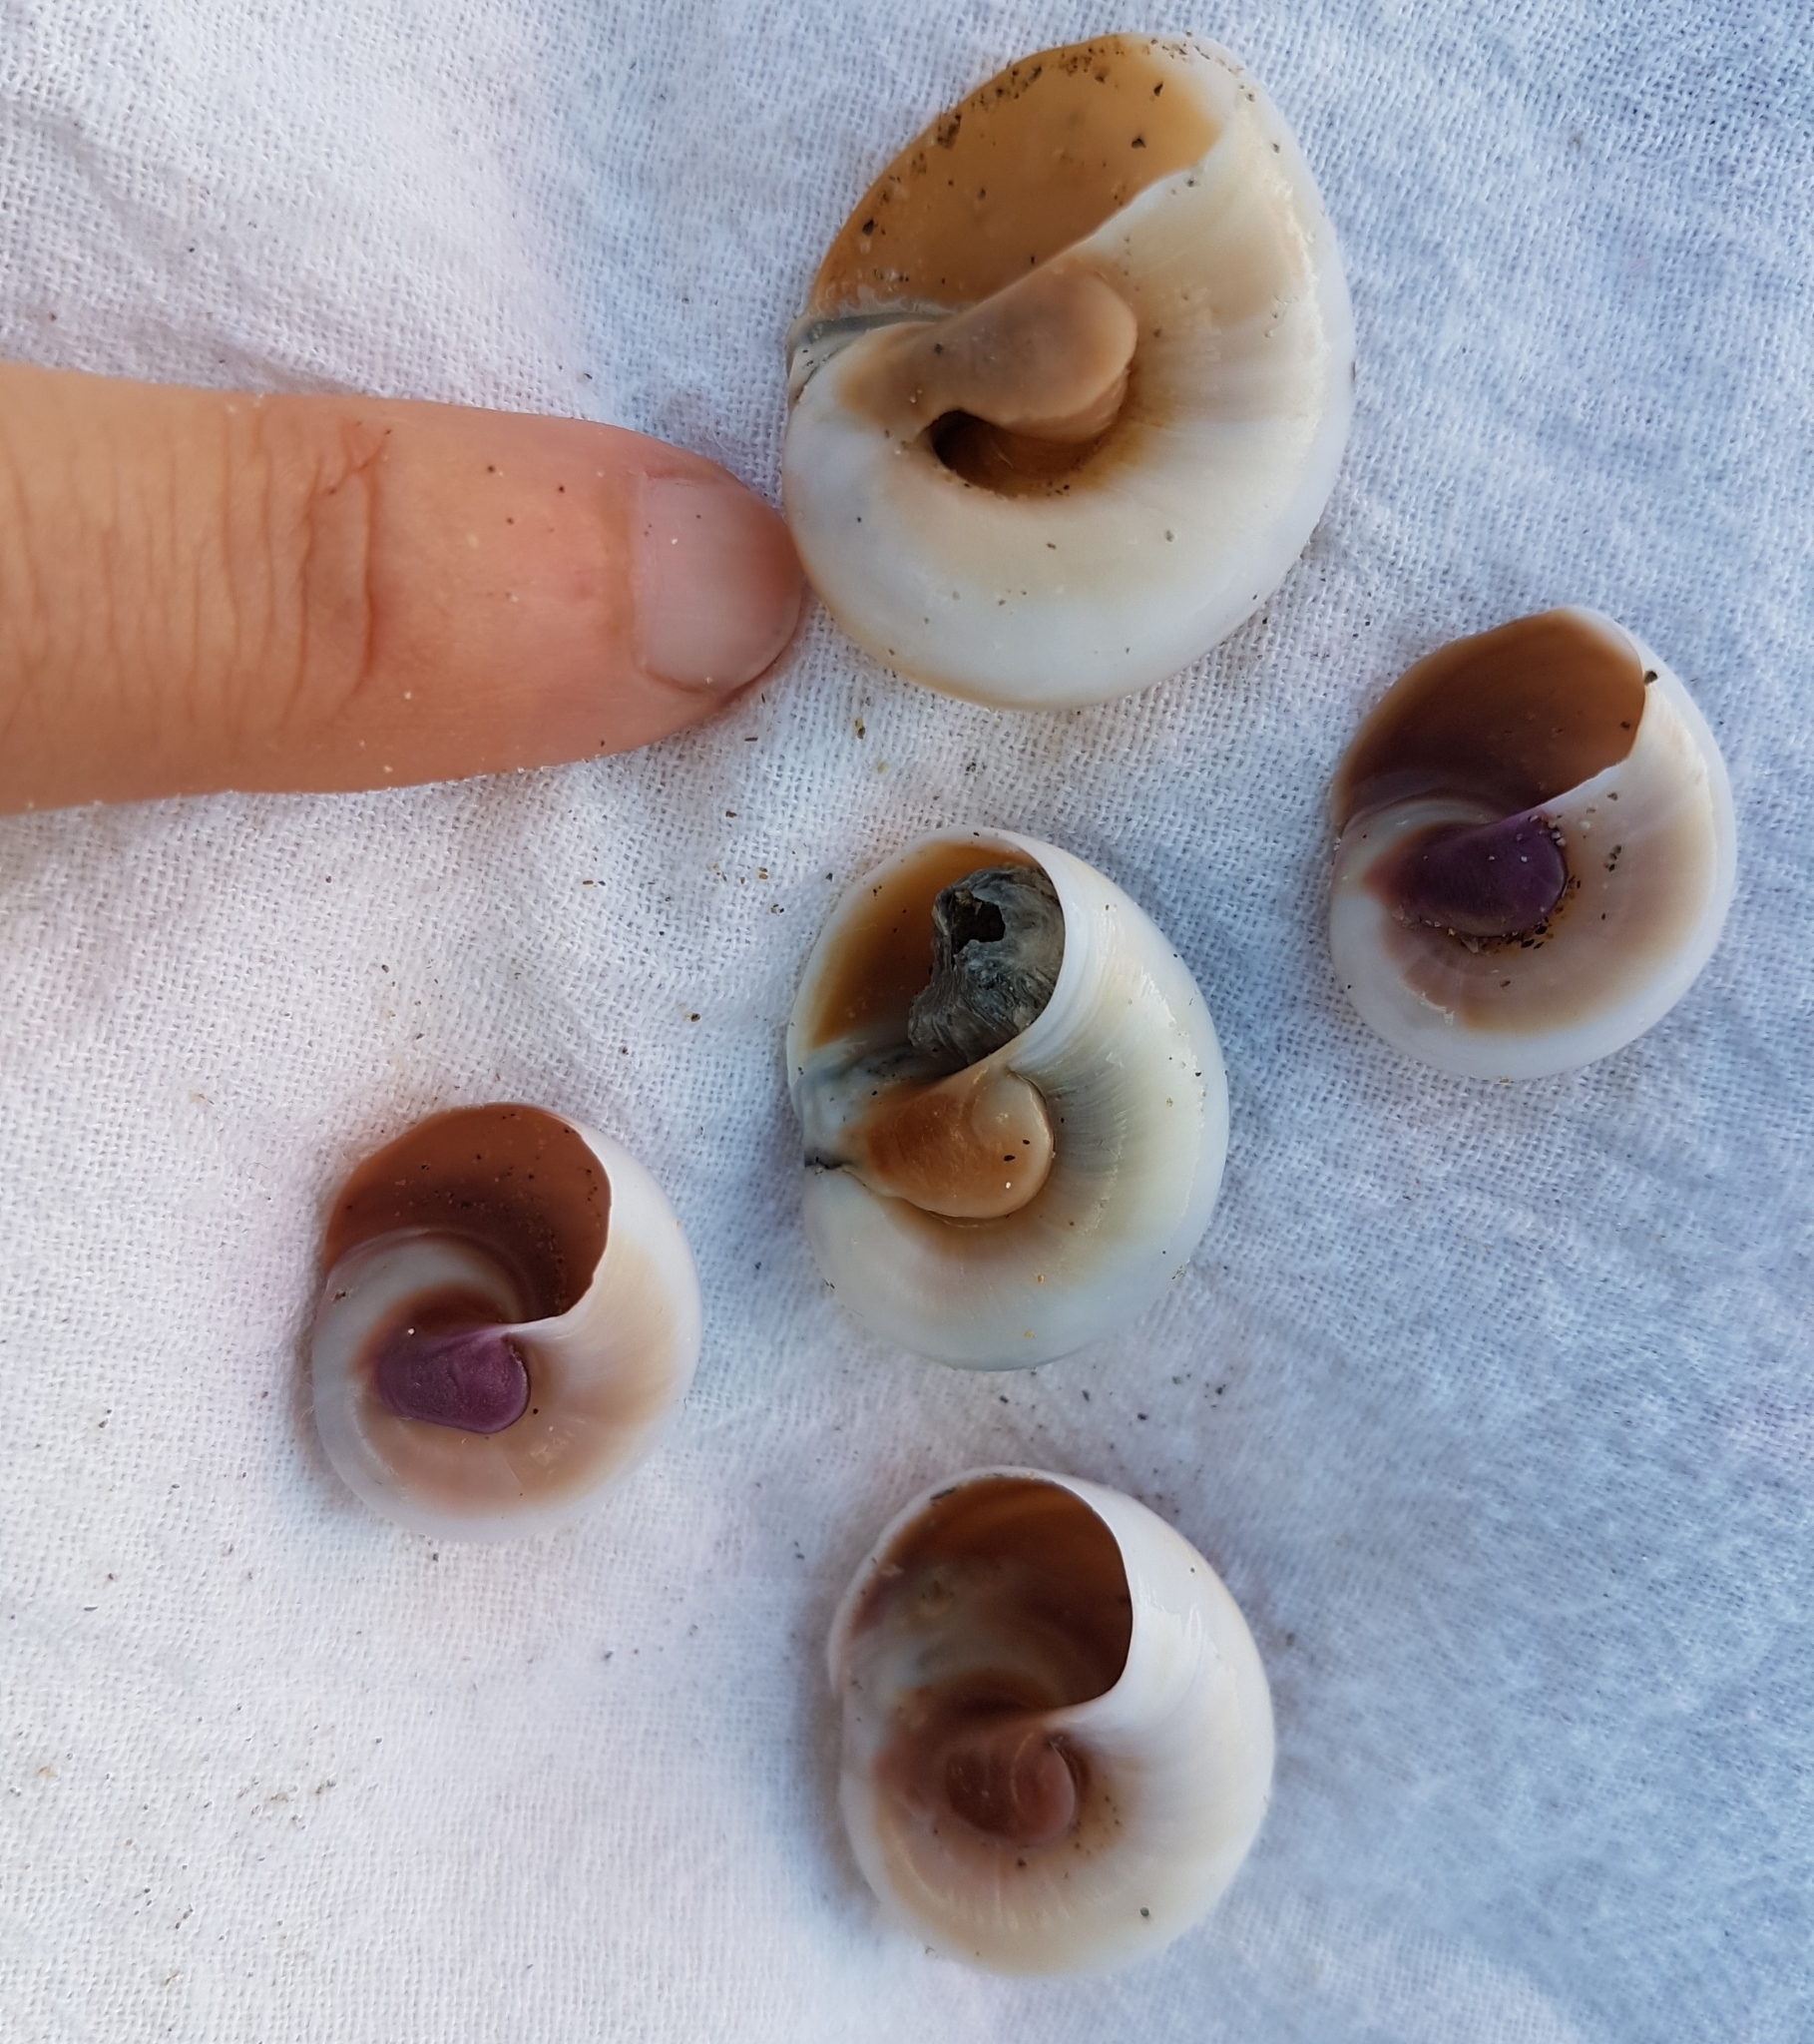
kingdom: Animalia
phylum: Mollusca
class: Gastropoda
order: Littorinimorpha
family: Naticidae
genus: Neverita
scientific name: Neverita josephinia
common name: Josephine's moonsnail
